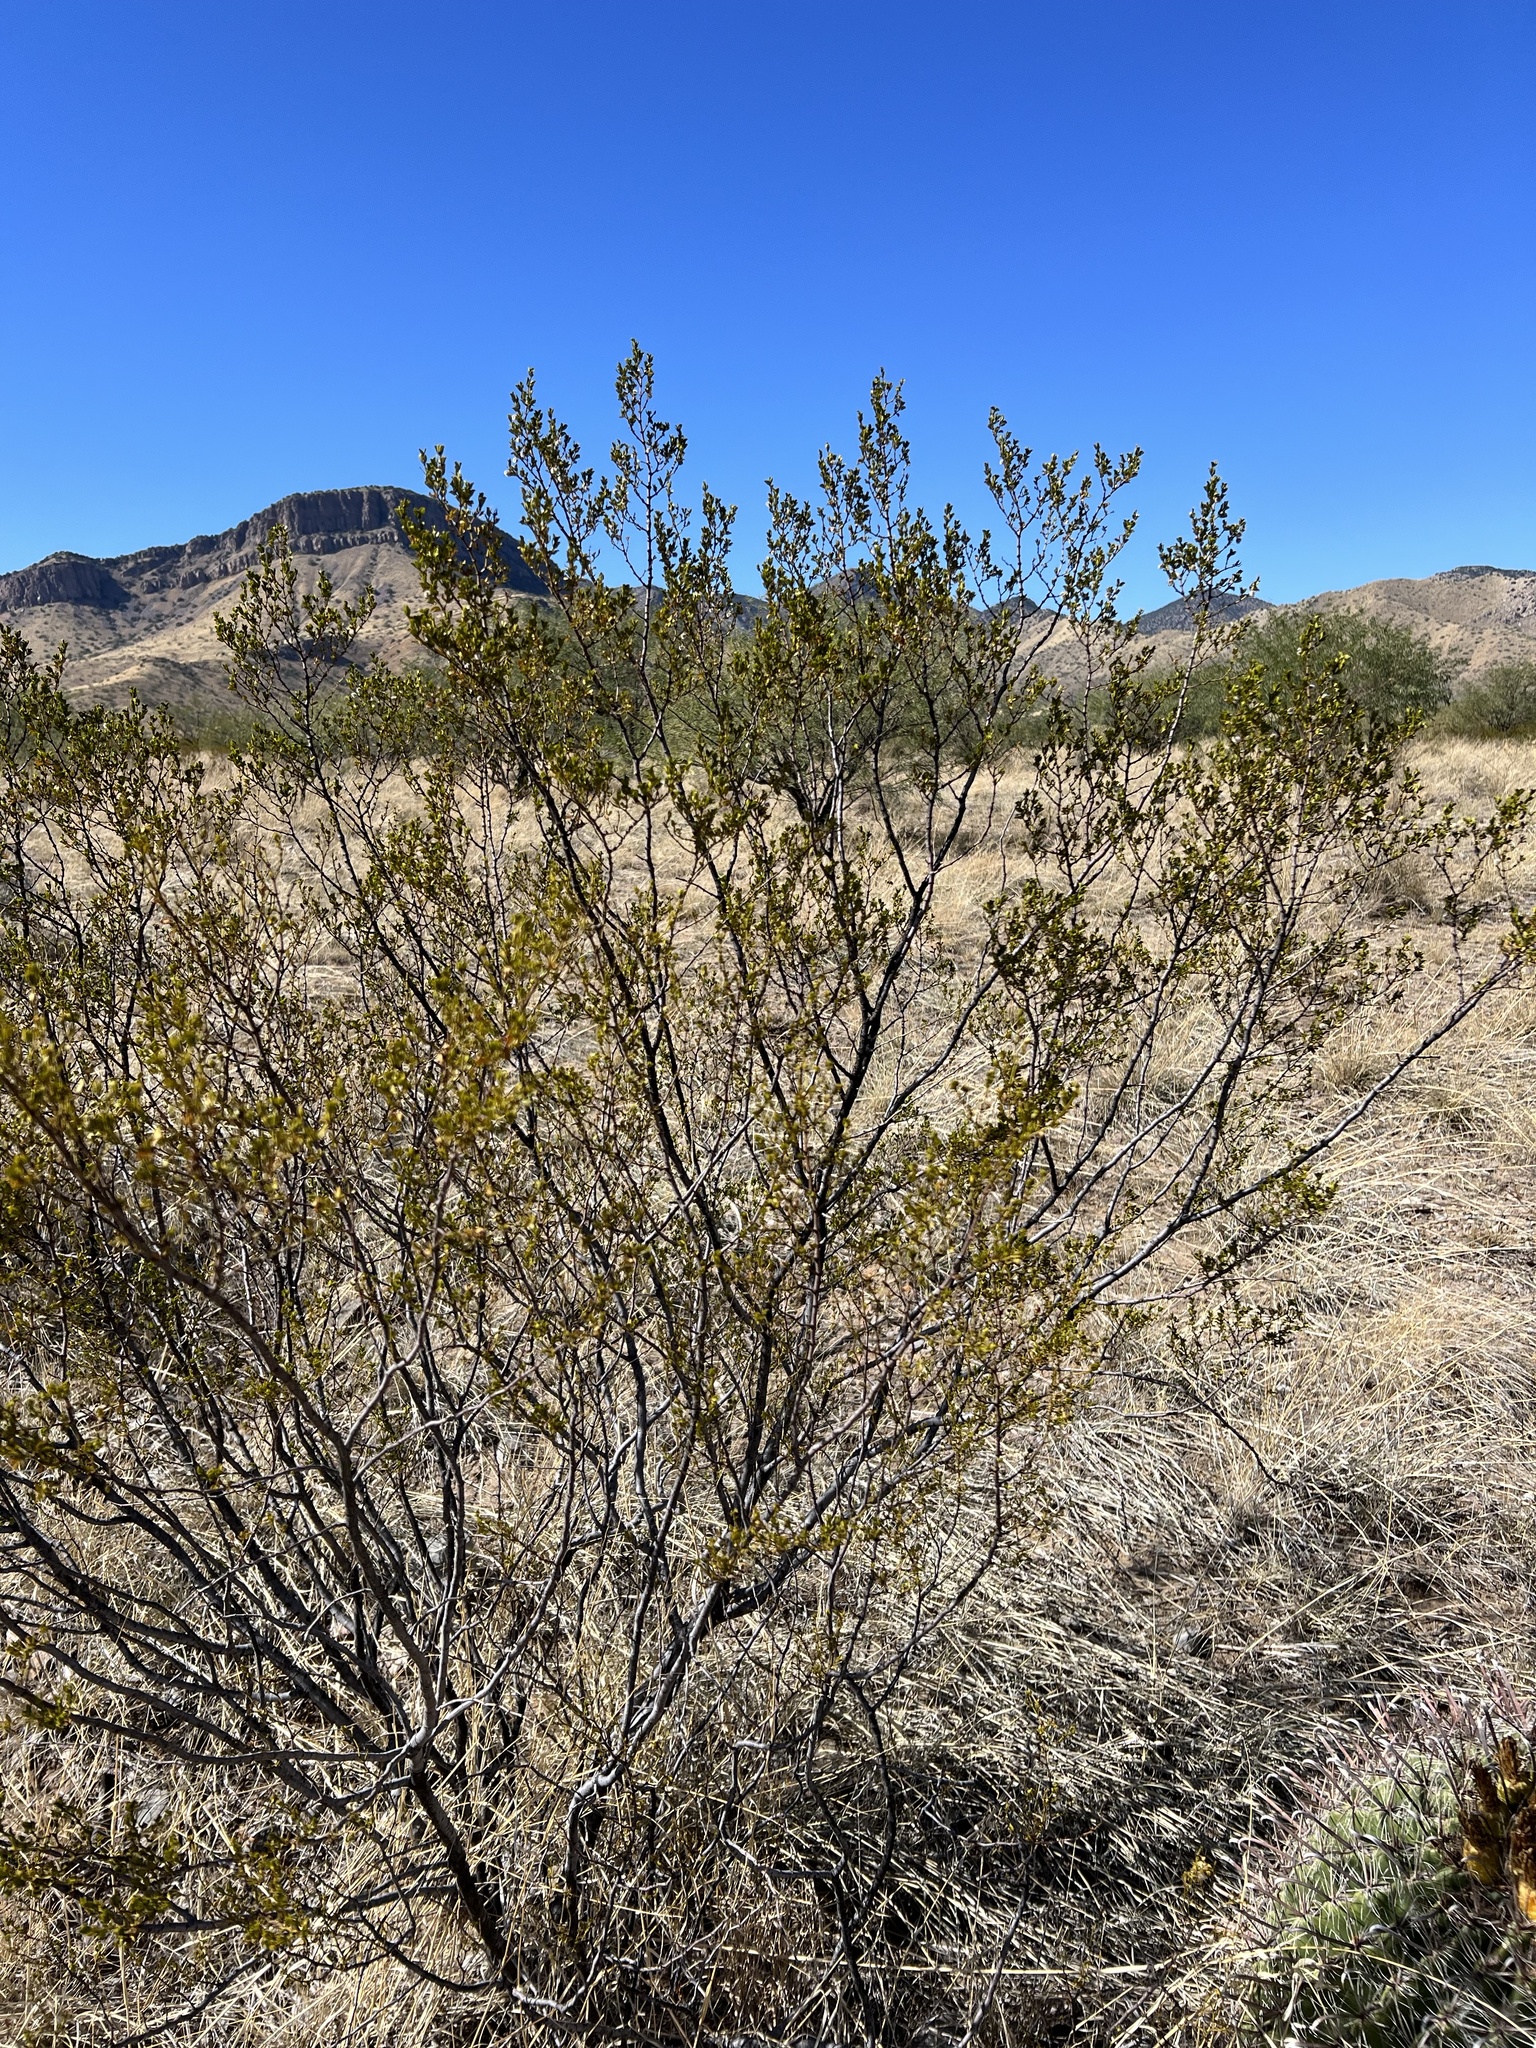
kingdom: Plantae
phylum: Tracheophyta
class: Magnoliopsida
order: Zygophyllales
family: Zygophyllaceae
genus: Larrea
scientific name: Larrea tridentata
